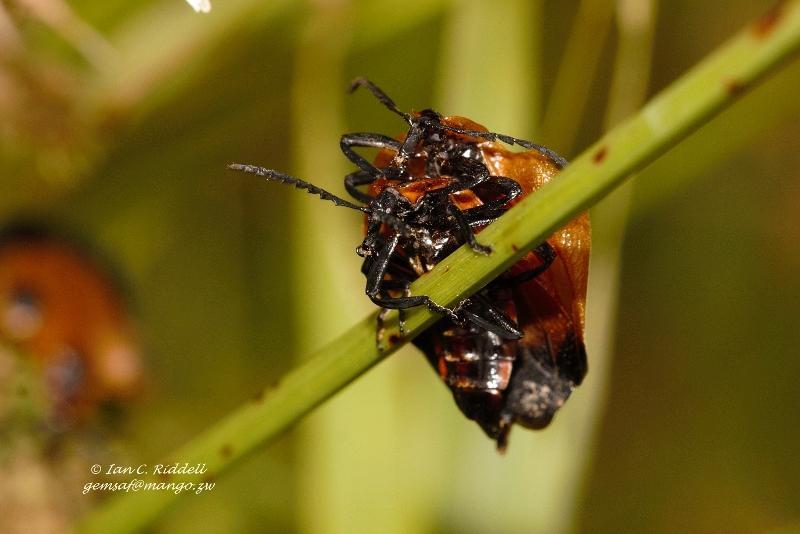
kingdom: Animalia
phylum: Arthropoda
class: Insecta
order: Coleoptera
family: Lycidae
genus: Lycus
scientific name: Lycus
